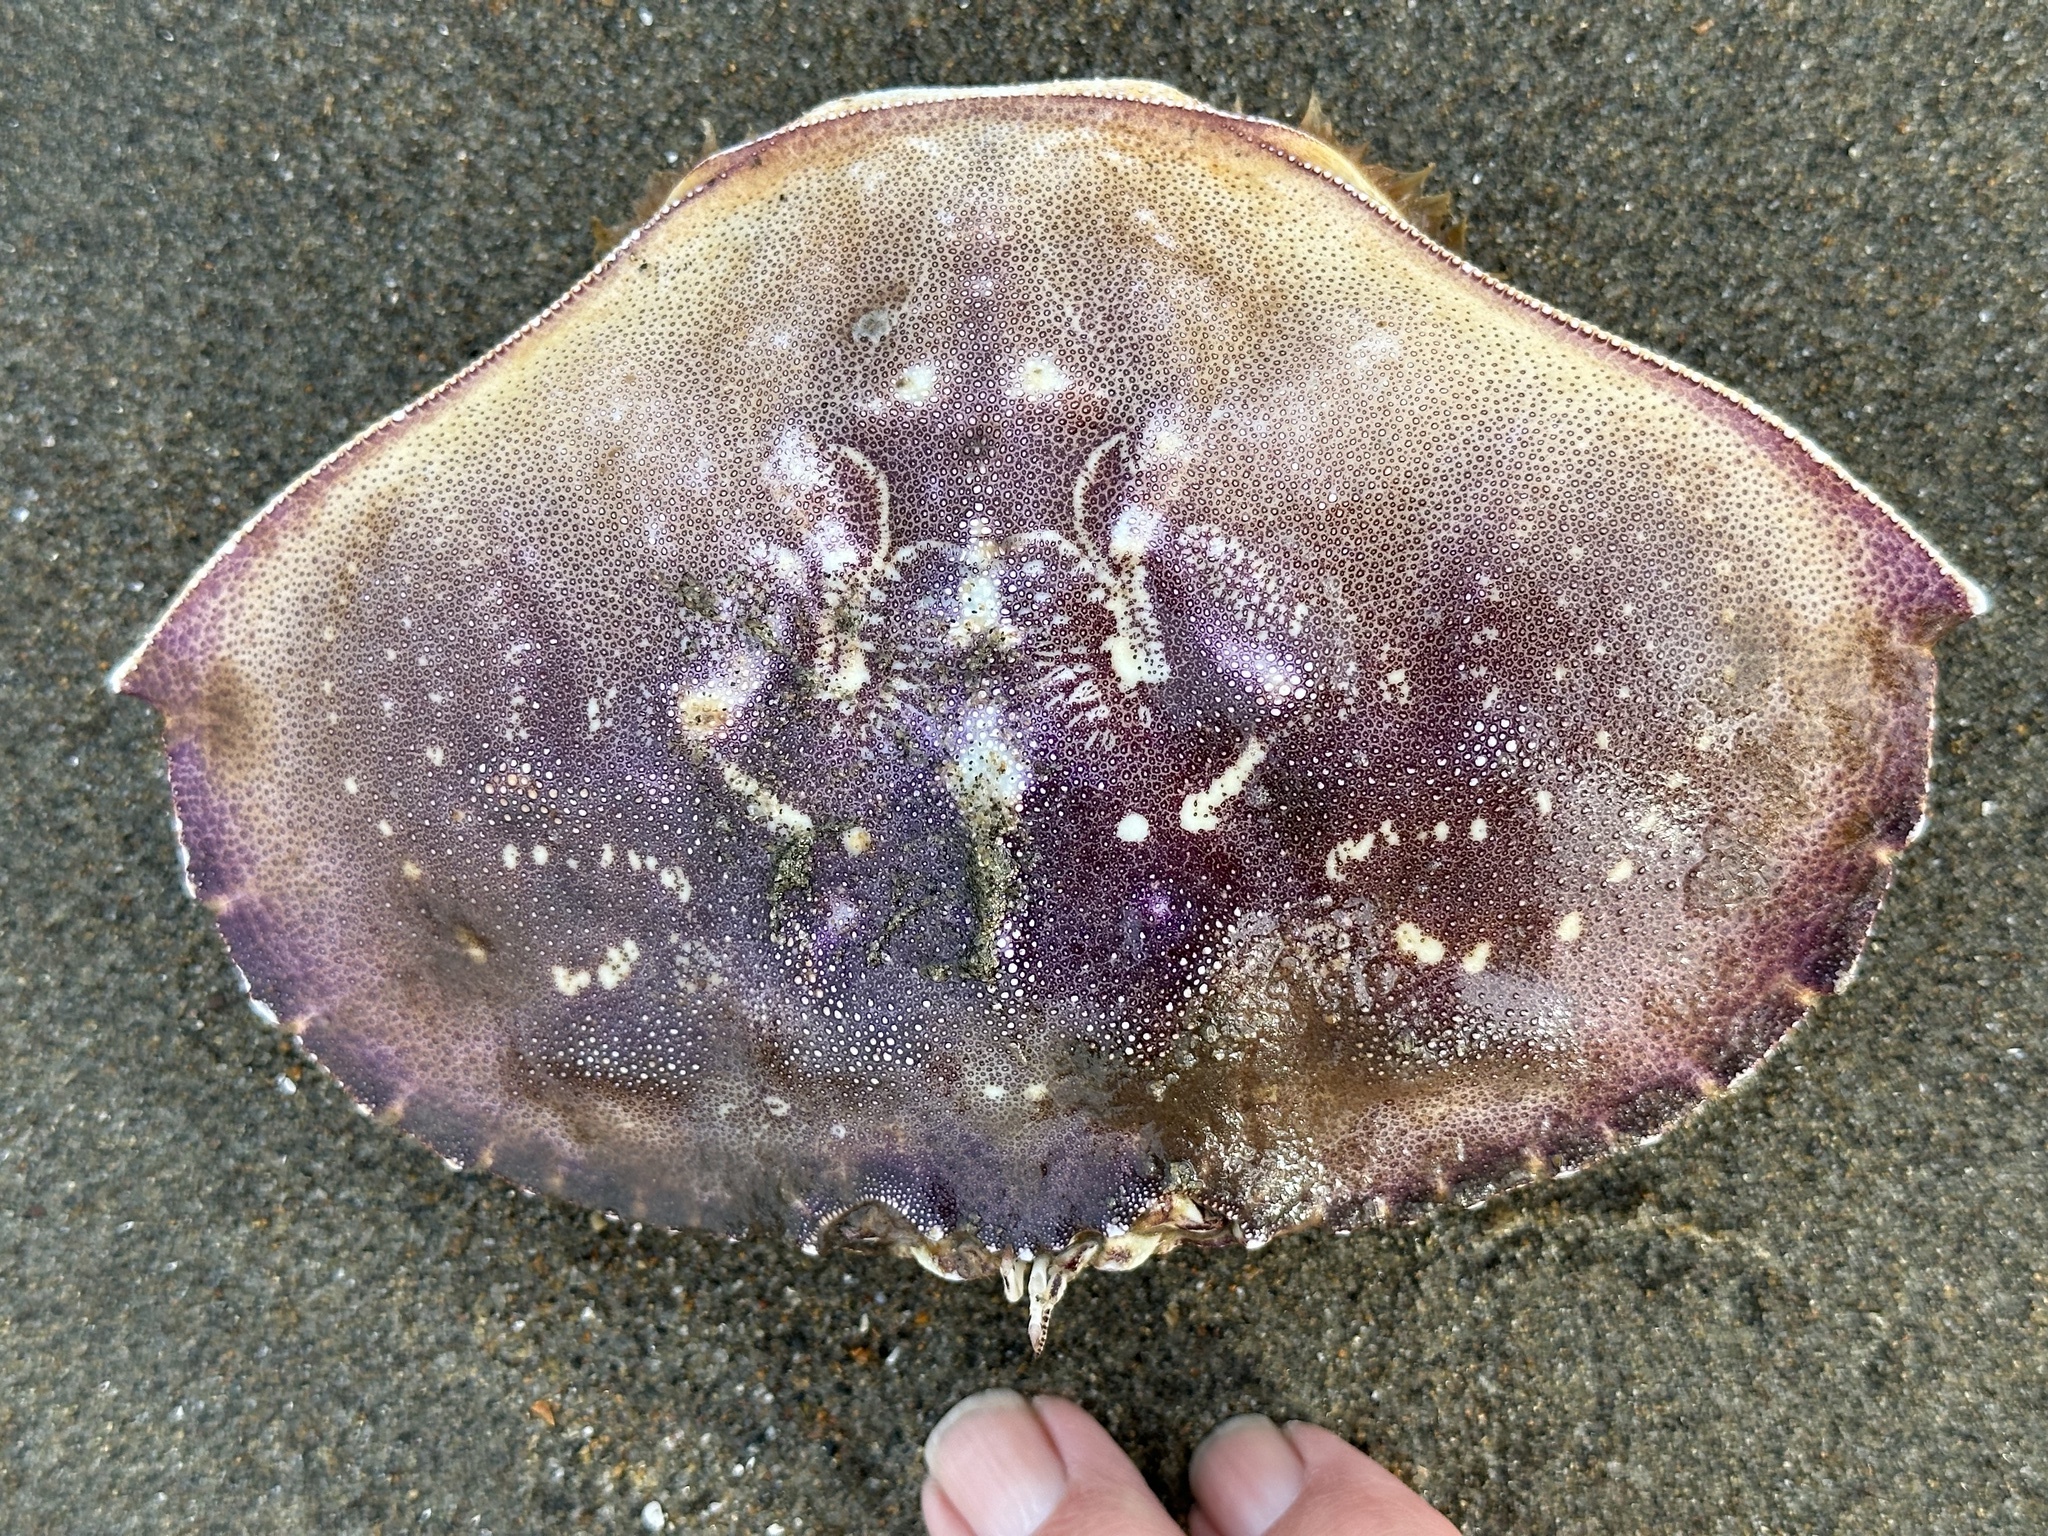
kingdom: Animalia
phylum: Arthropoda
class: Malacostraca
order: Decapoda
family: Cancridae
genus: Metacarcinus
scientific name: Metacarcinus magister
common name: Californian crab
